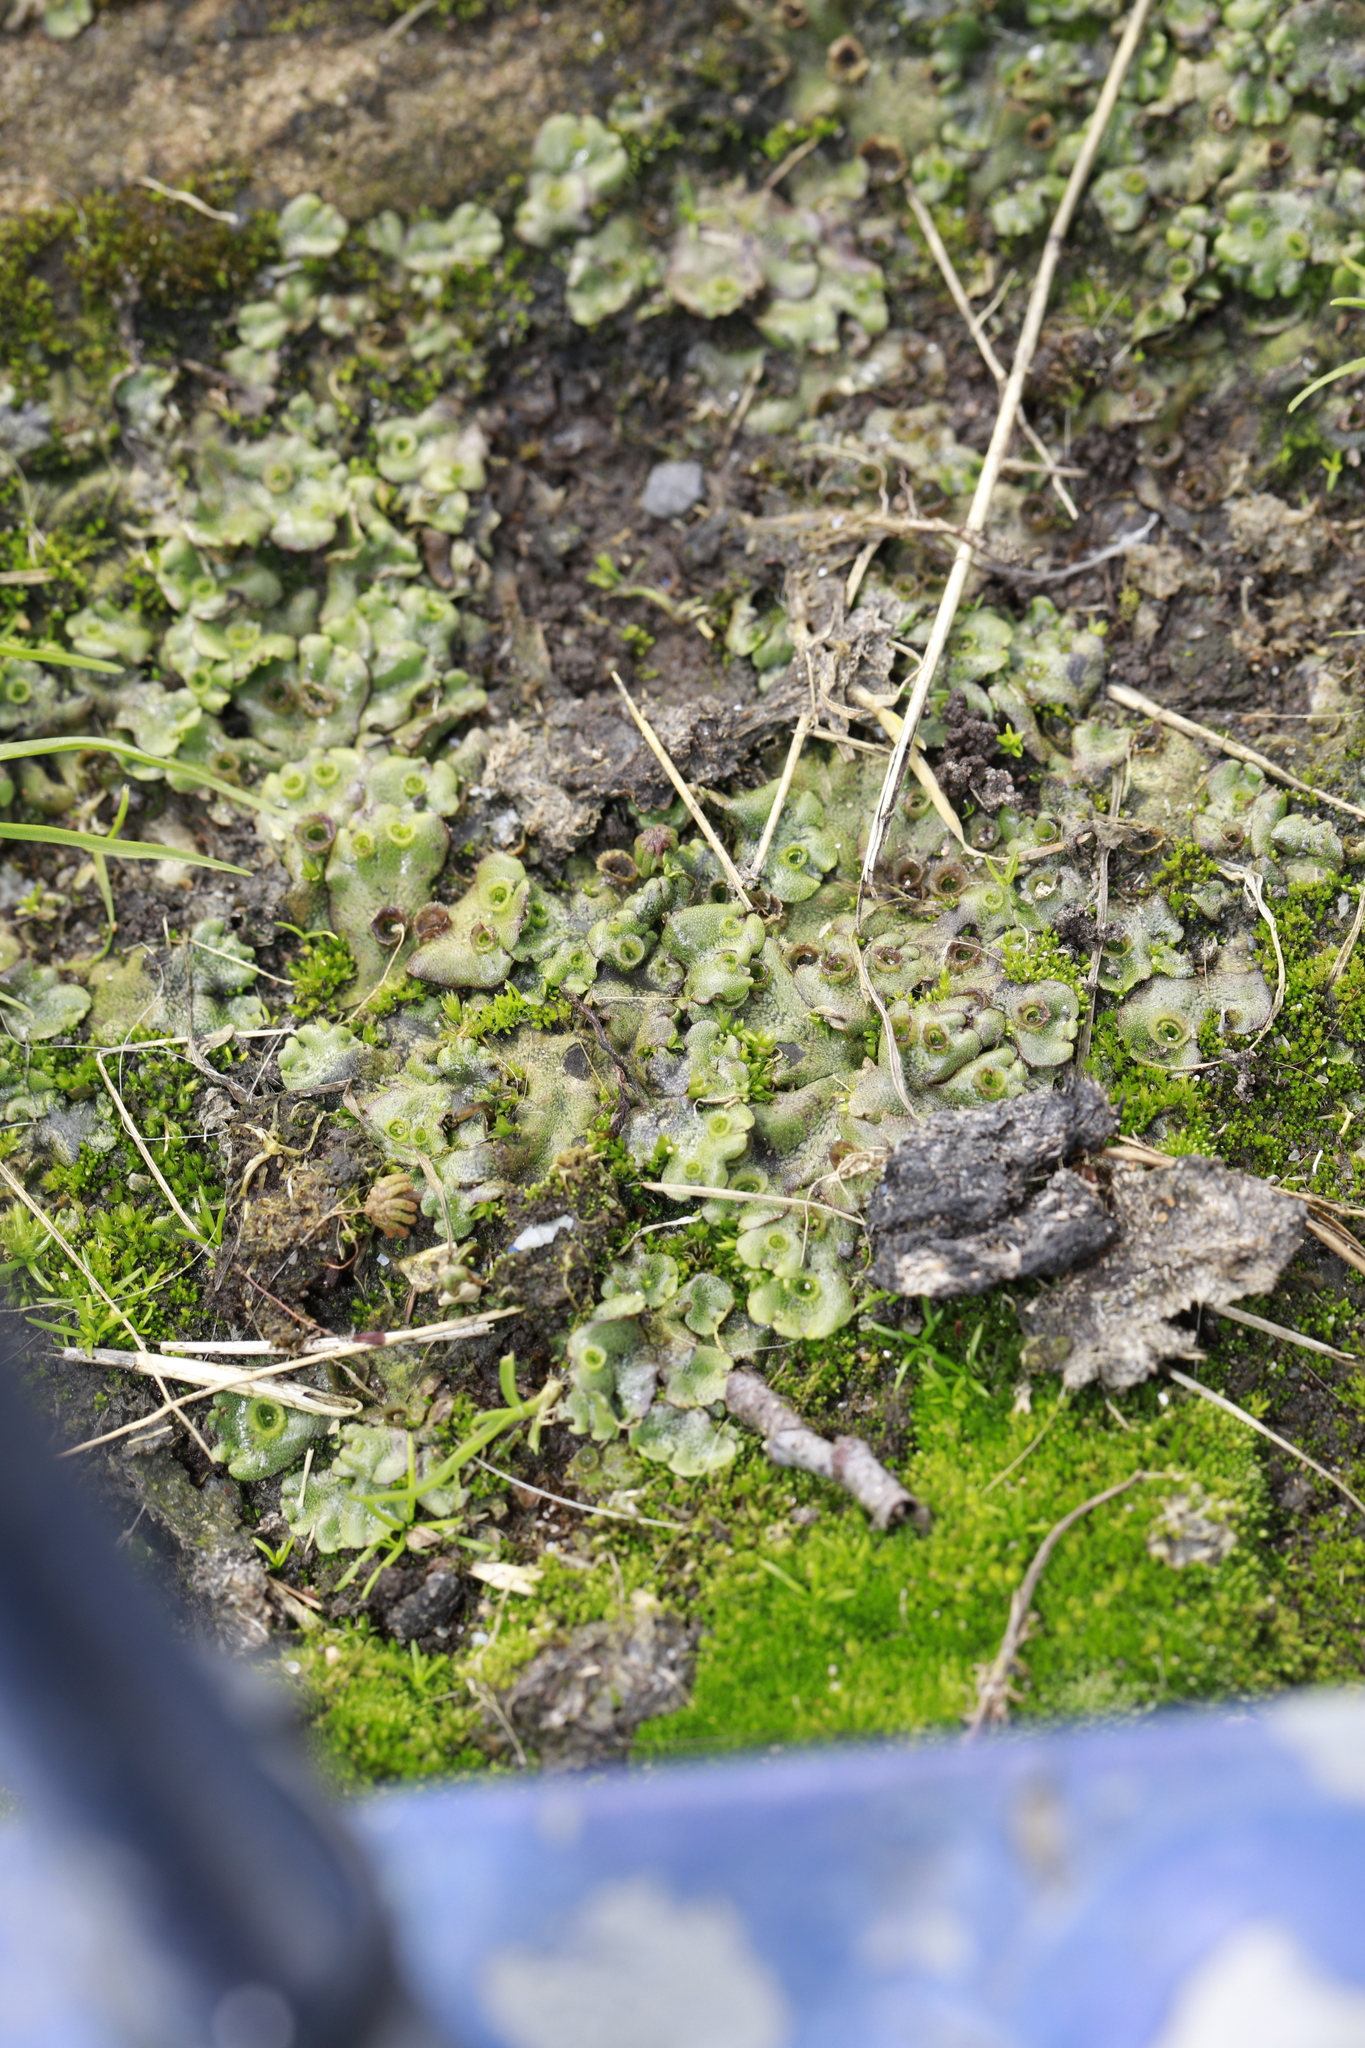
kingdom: Plantae
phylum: Marchantiophyta
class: Marchantiopsida
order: Marchantiales
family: Marchantiaceae
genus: Marchantia
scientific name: Marchantia polymorpha
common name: Common liverwort
